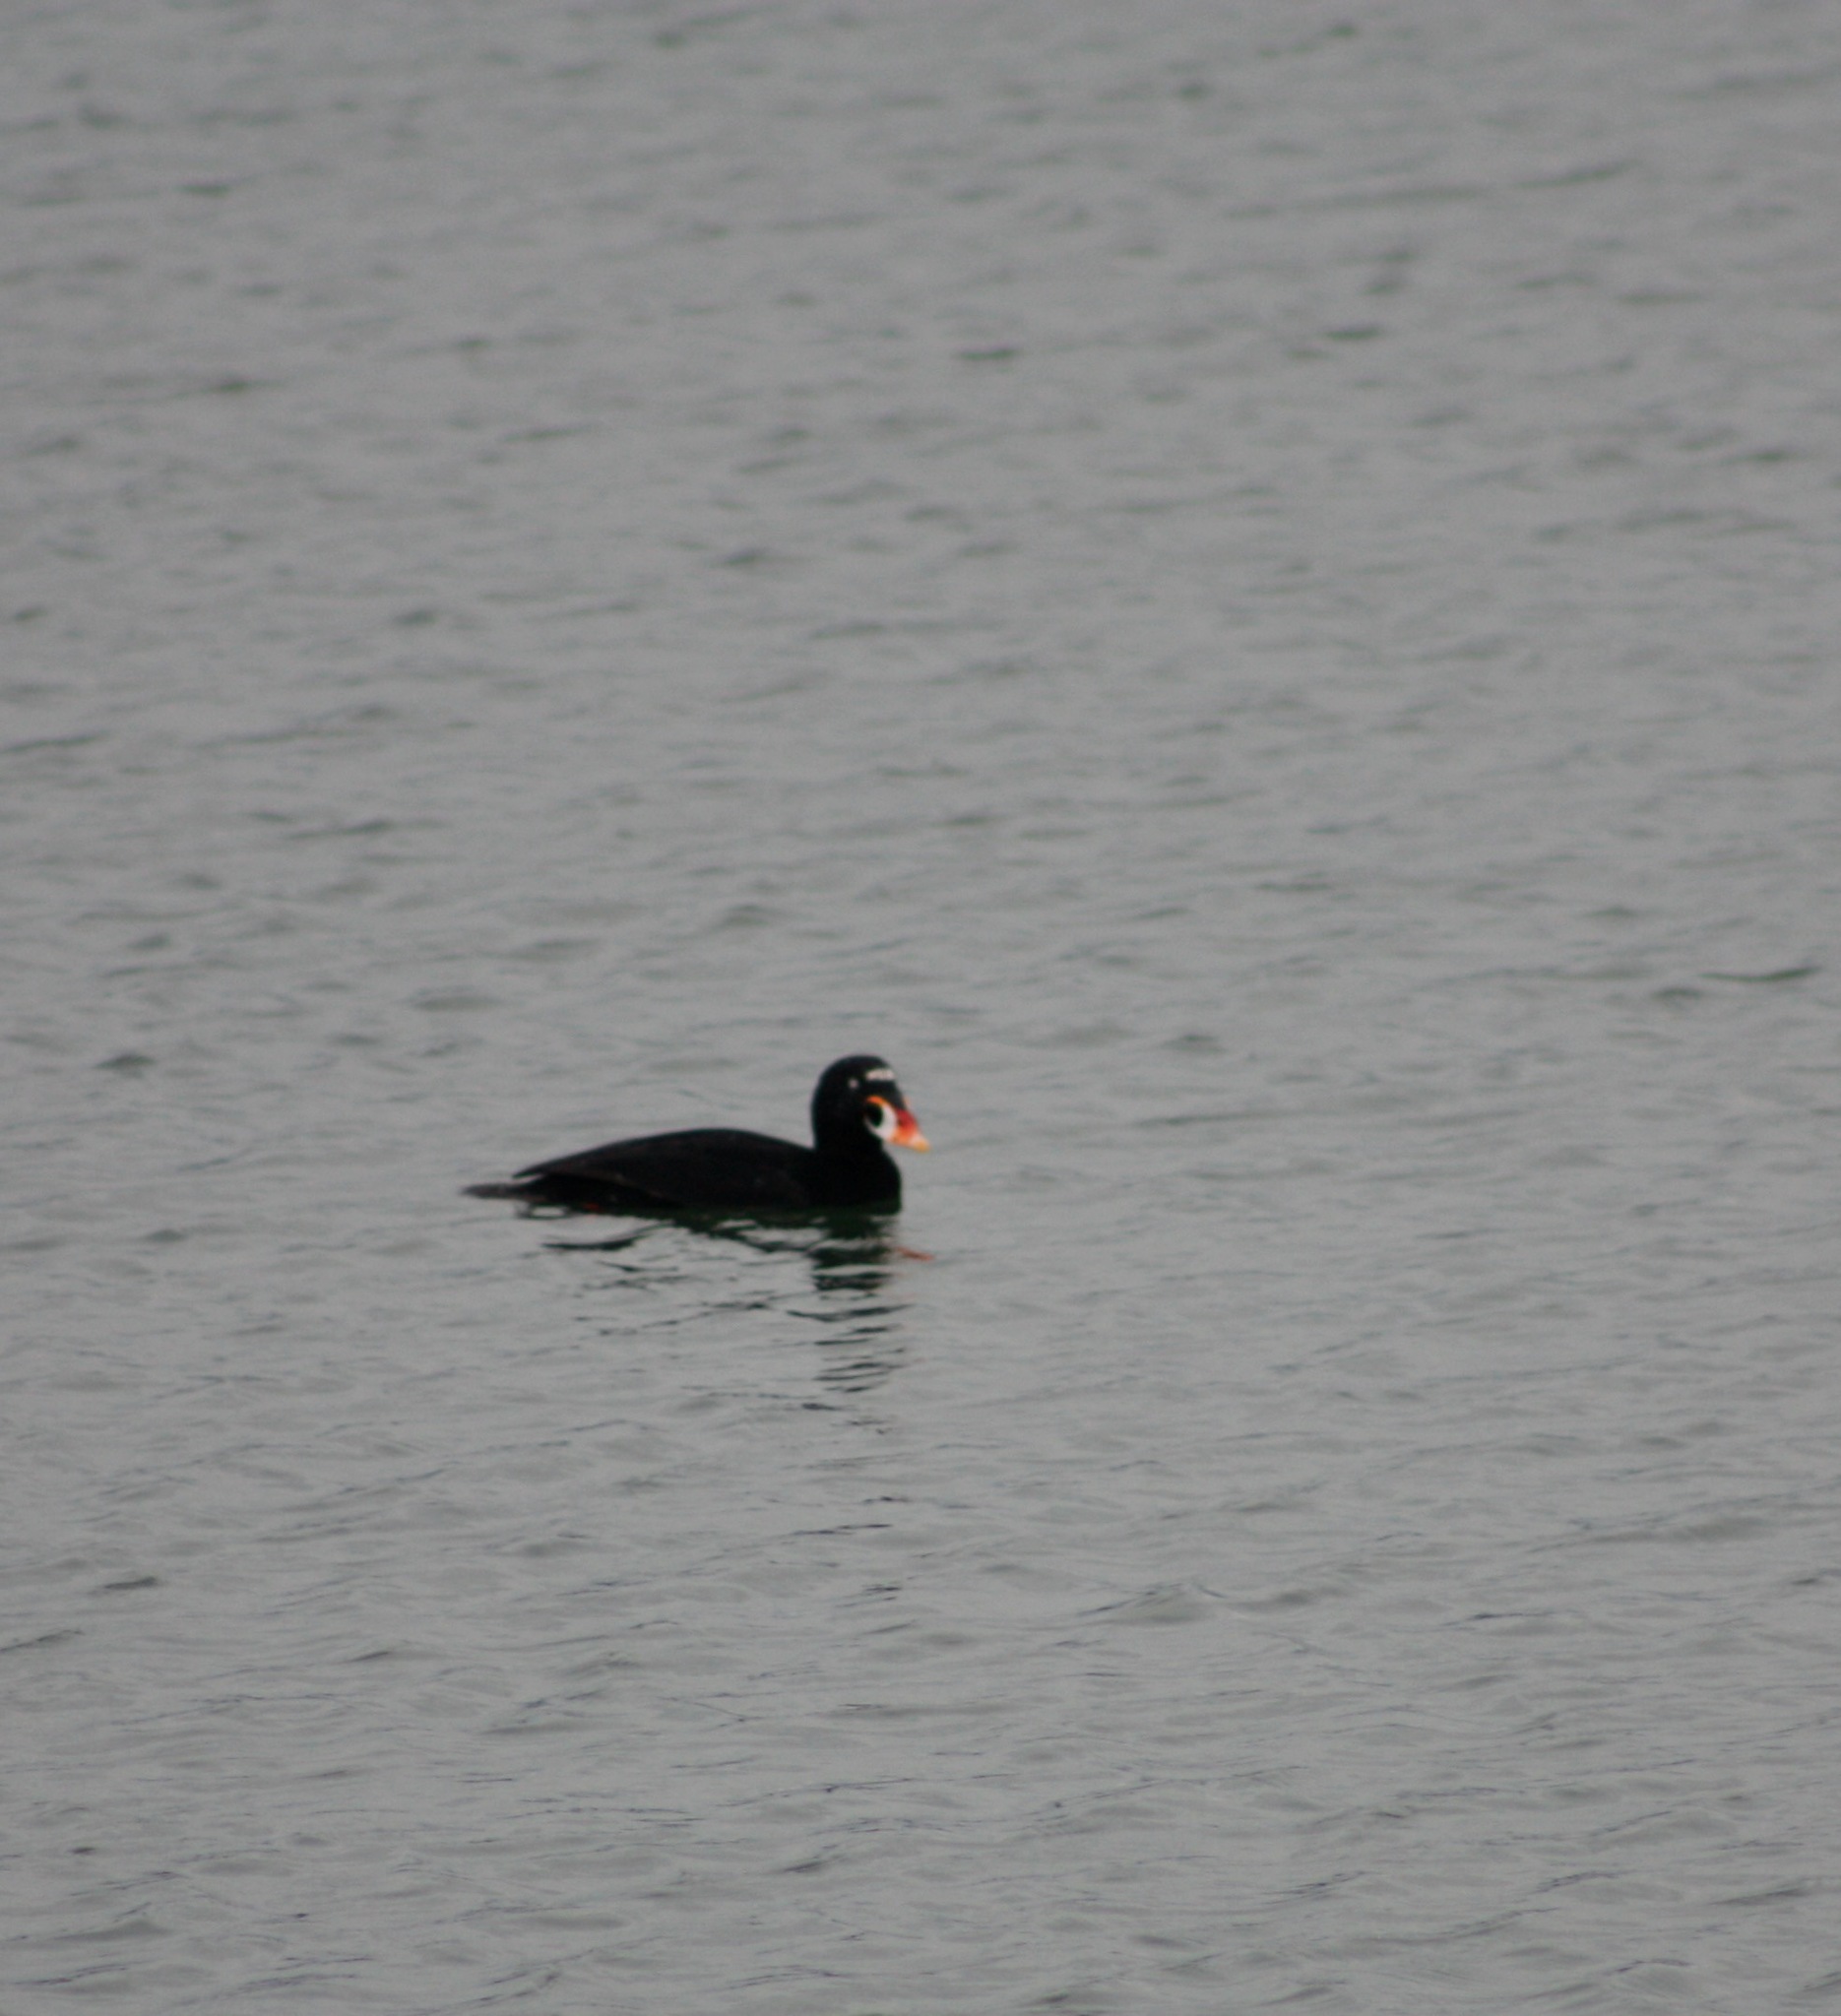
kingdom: Animalia
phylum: Chordata
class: Aves
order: Anseriformes
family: Anatidae
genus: Melanitta
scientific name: Melanitta perspicillata
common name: Surf scoter
